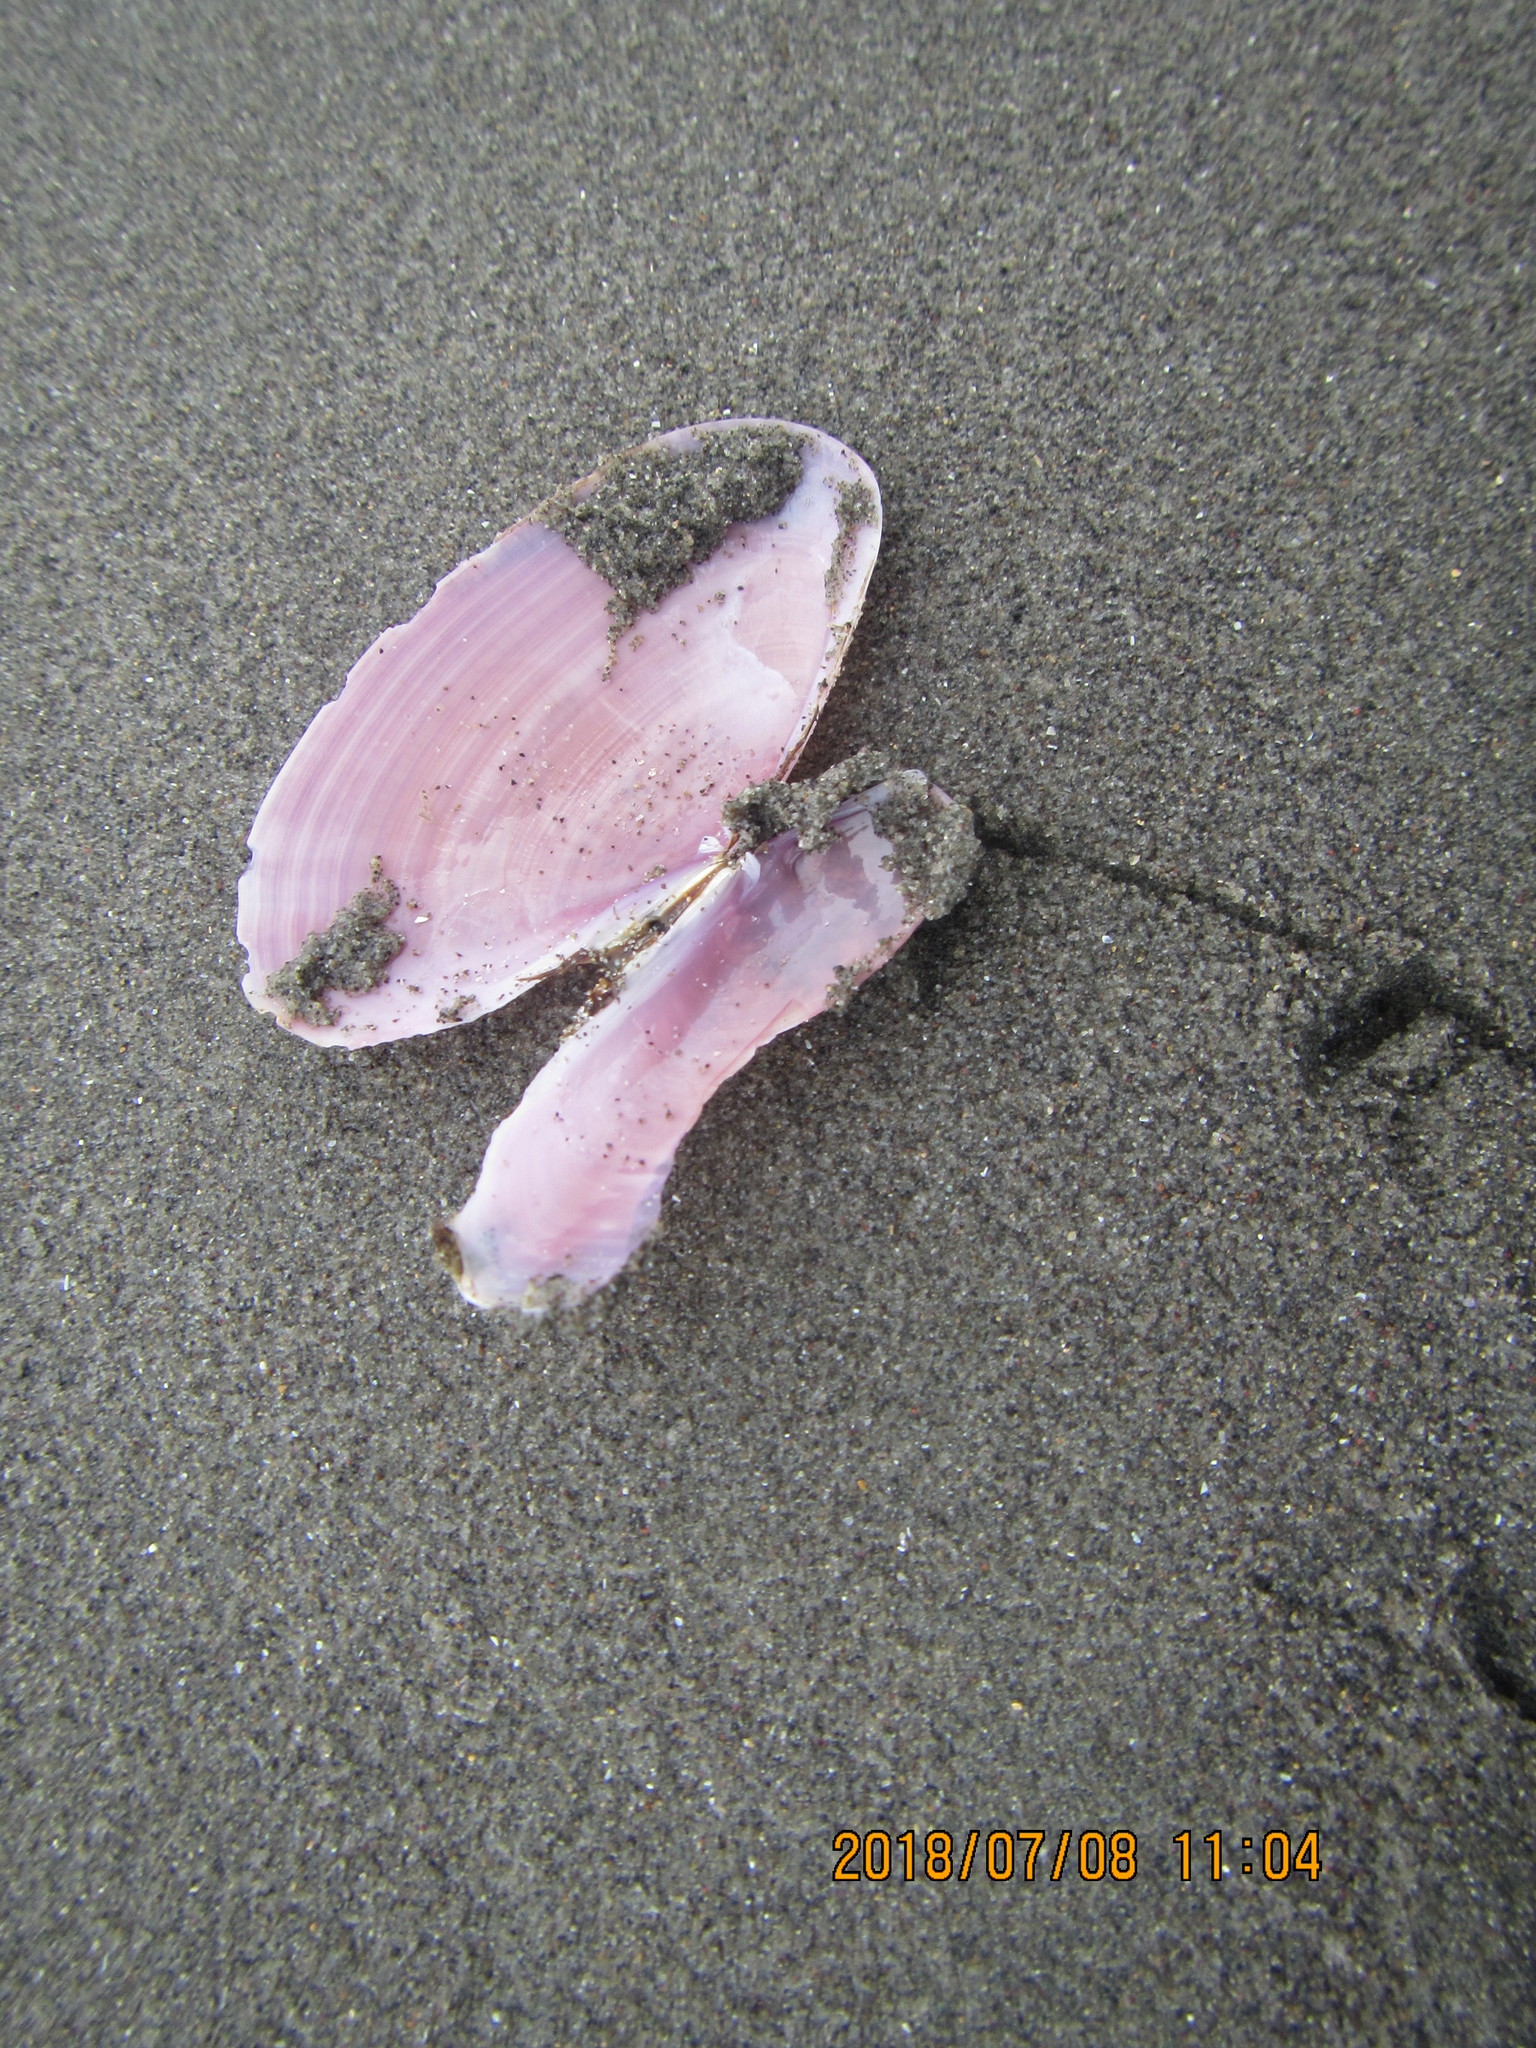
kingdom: Animalia
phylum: Mollusca
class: Bivalvia
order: Cardiida
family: Psammobiidae
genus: Gari
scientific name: Gari lineolata
